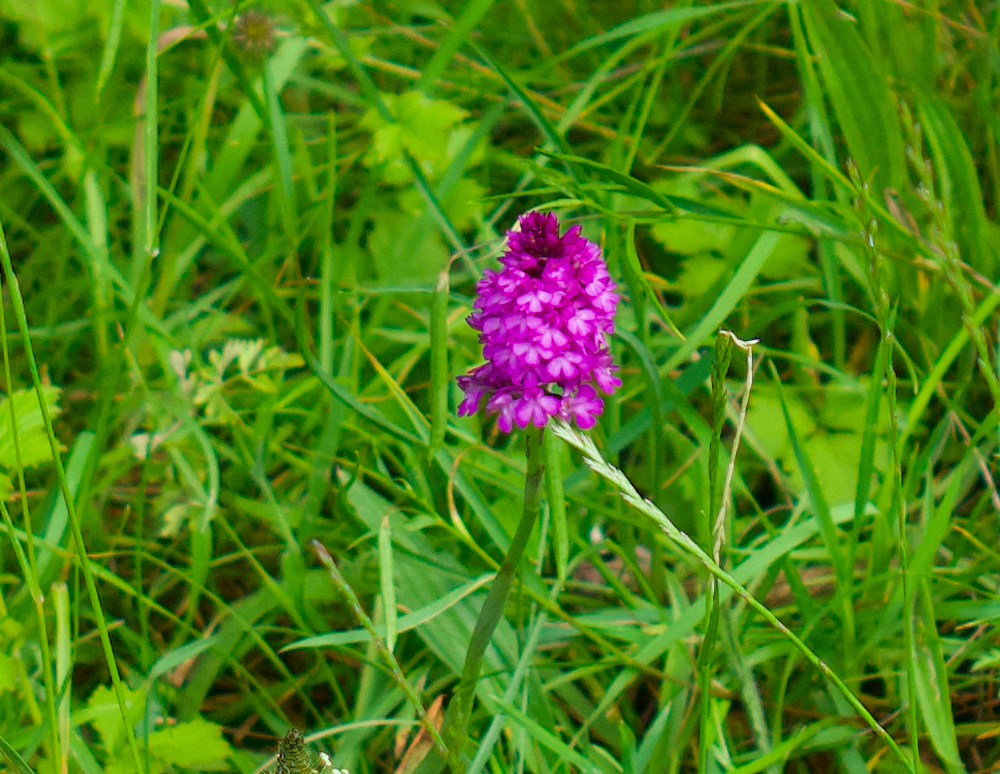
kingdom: Plantae
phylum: Tracheophyta
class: Liliopsida
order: Asparagales
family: Orchidaceae
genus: Anacamptis
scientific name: Anacamptis pyramidalis
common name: Pyramidal orchid
